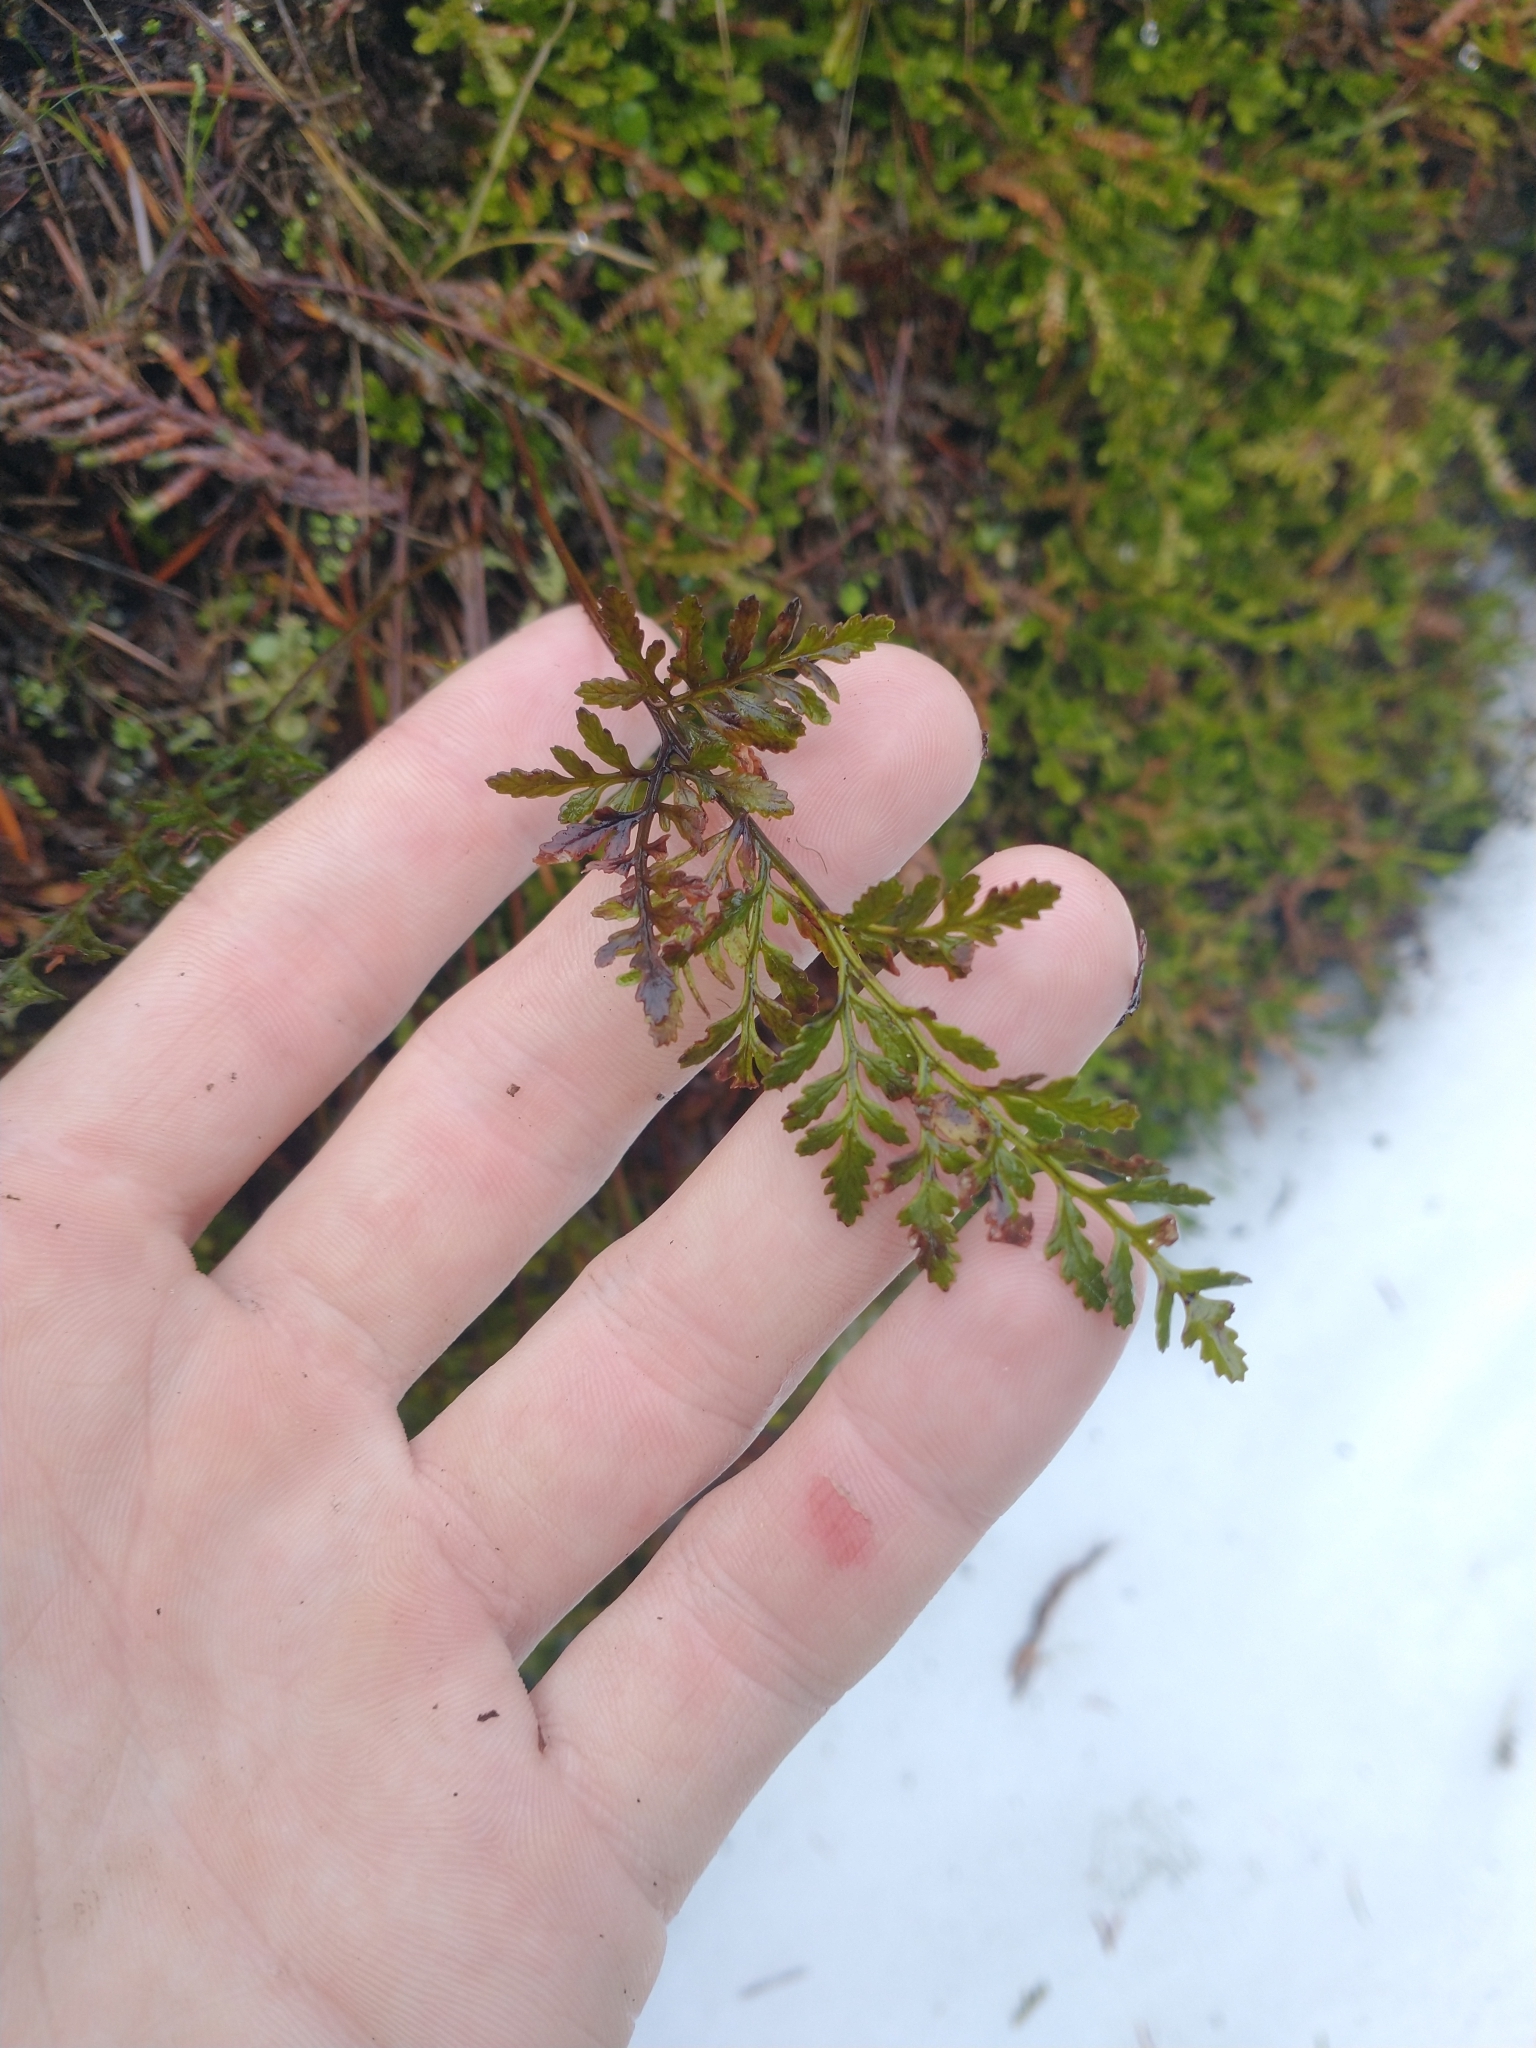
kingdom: Plantae
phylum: Tracheophyta
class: Polypodiopsida
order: Polypodiales
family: Pteridaceae
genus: Cryptogramma
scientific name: Cryptogramma acrostichoides
